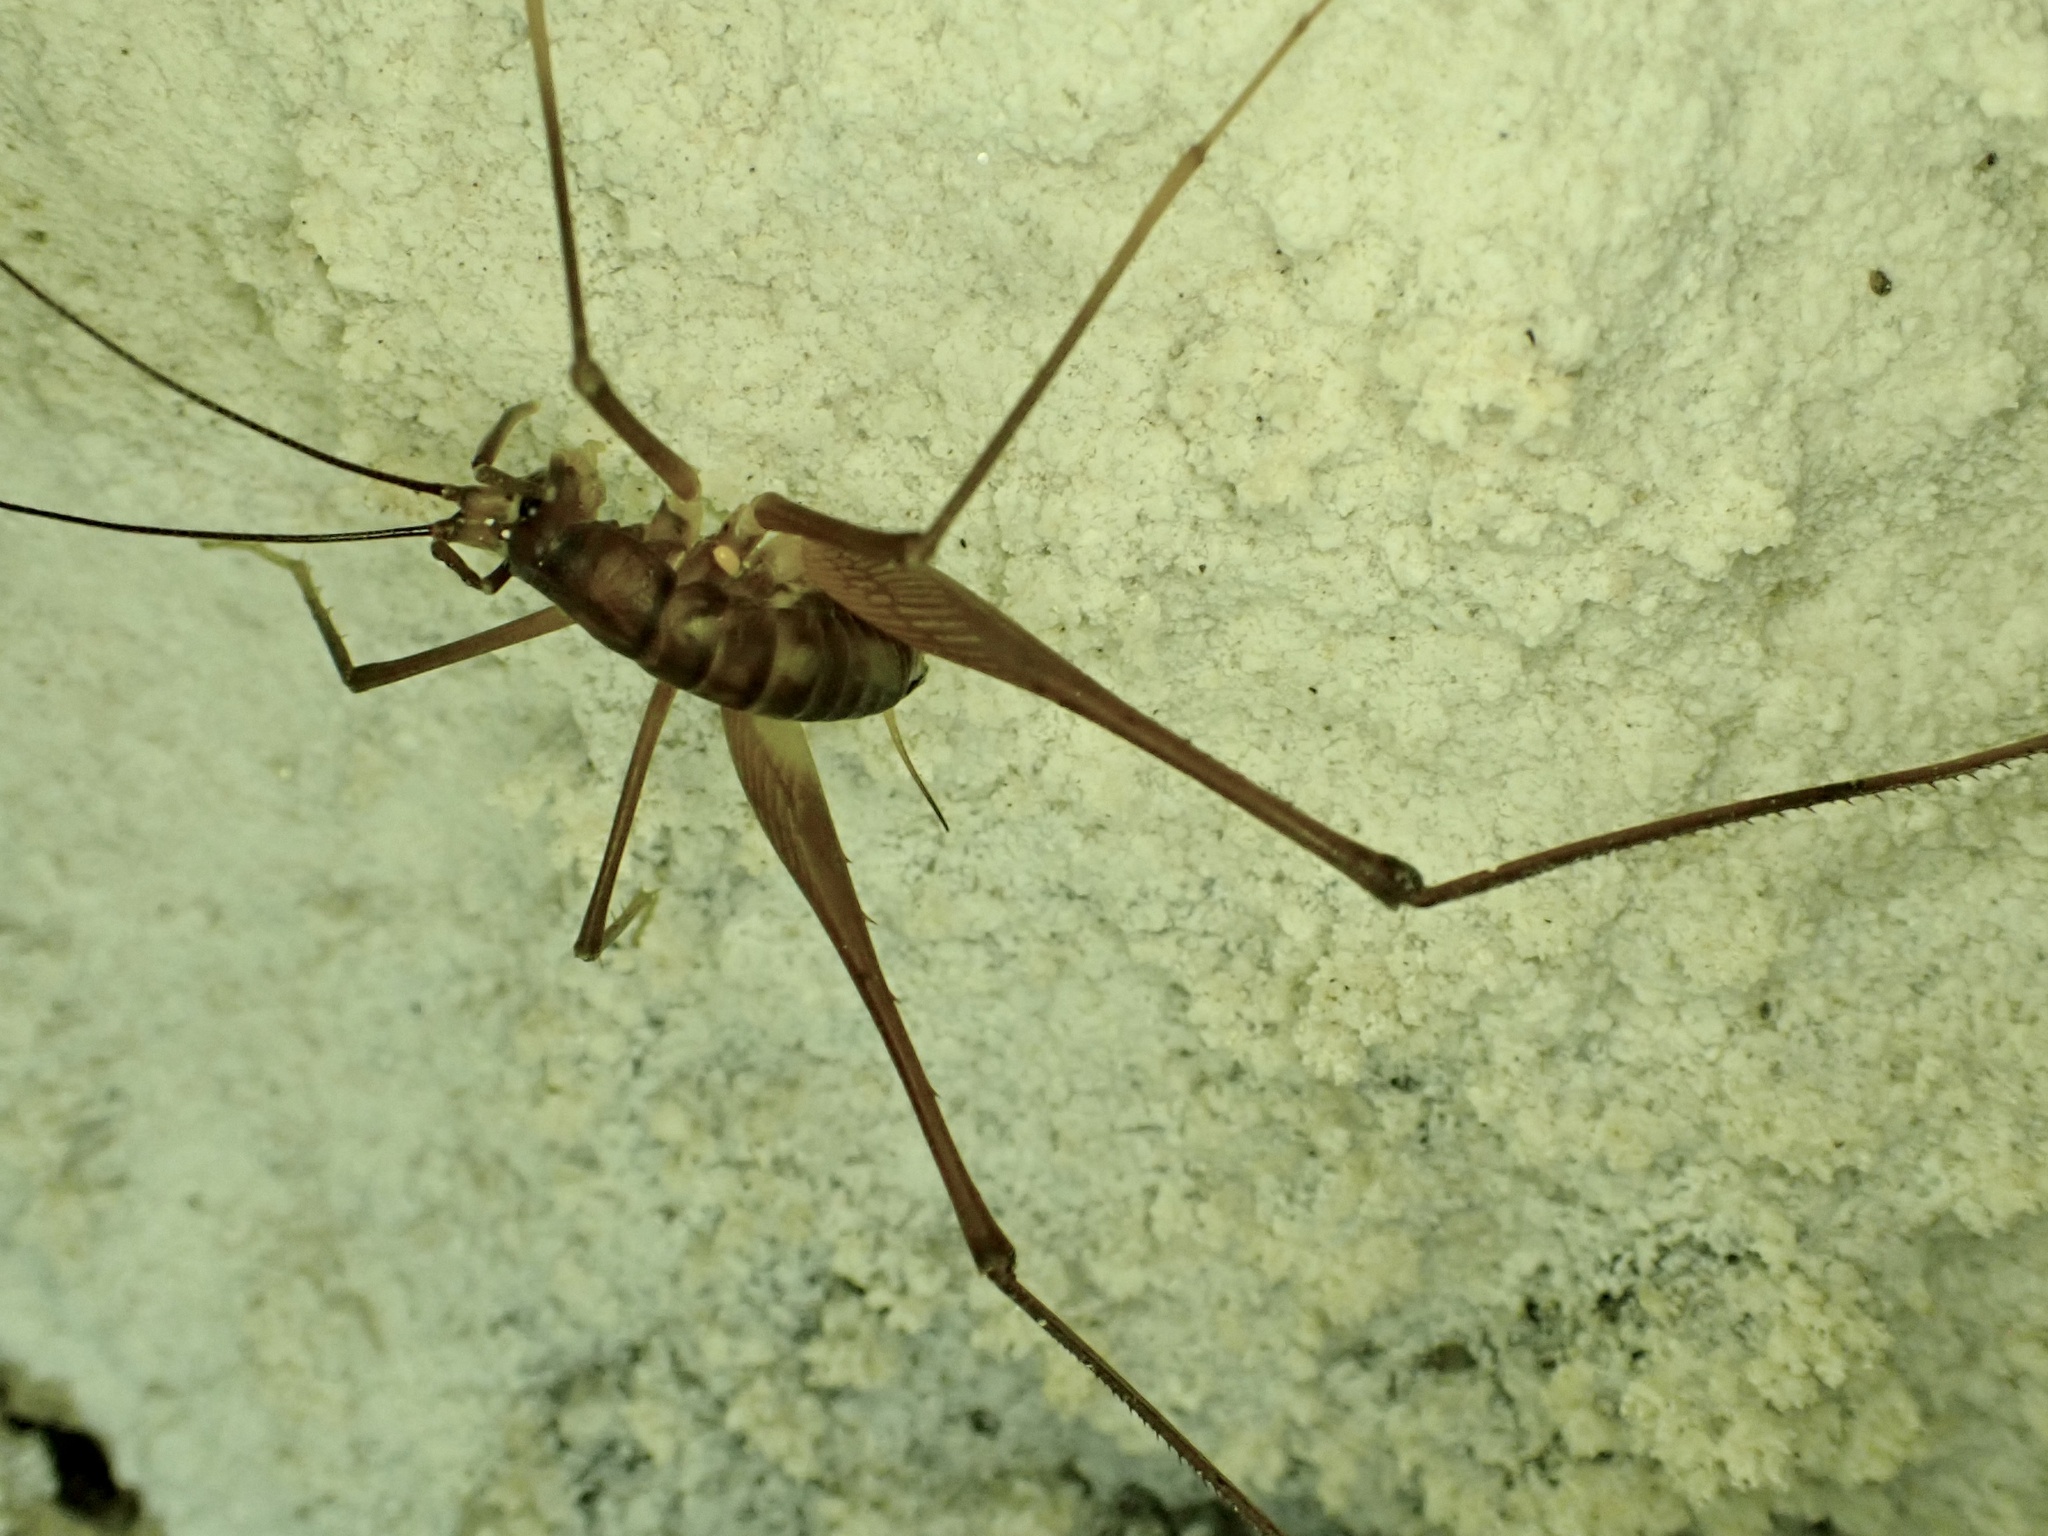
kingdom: Animalia
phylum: Arthropoda
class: Insecta
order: Orthoptera
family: Rhaphidophoridae
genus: Macropathus
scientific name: Macropathus filifer
